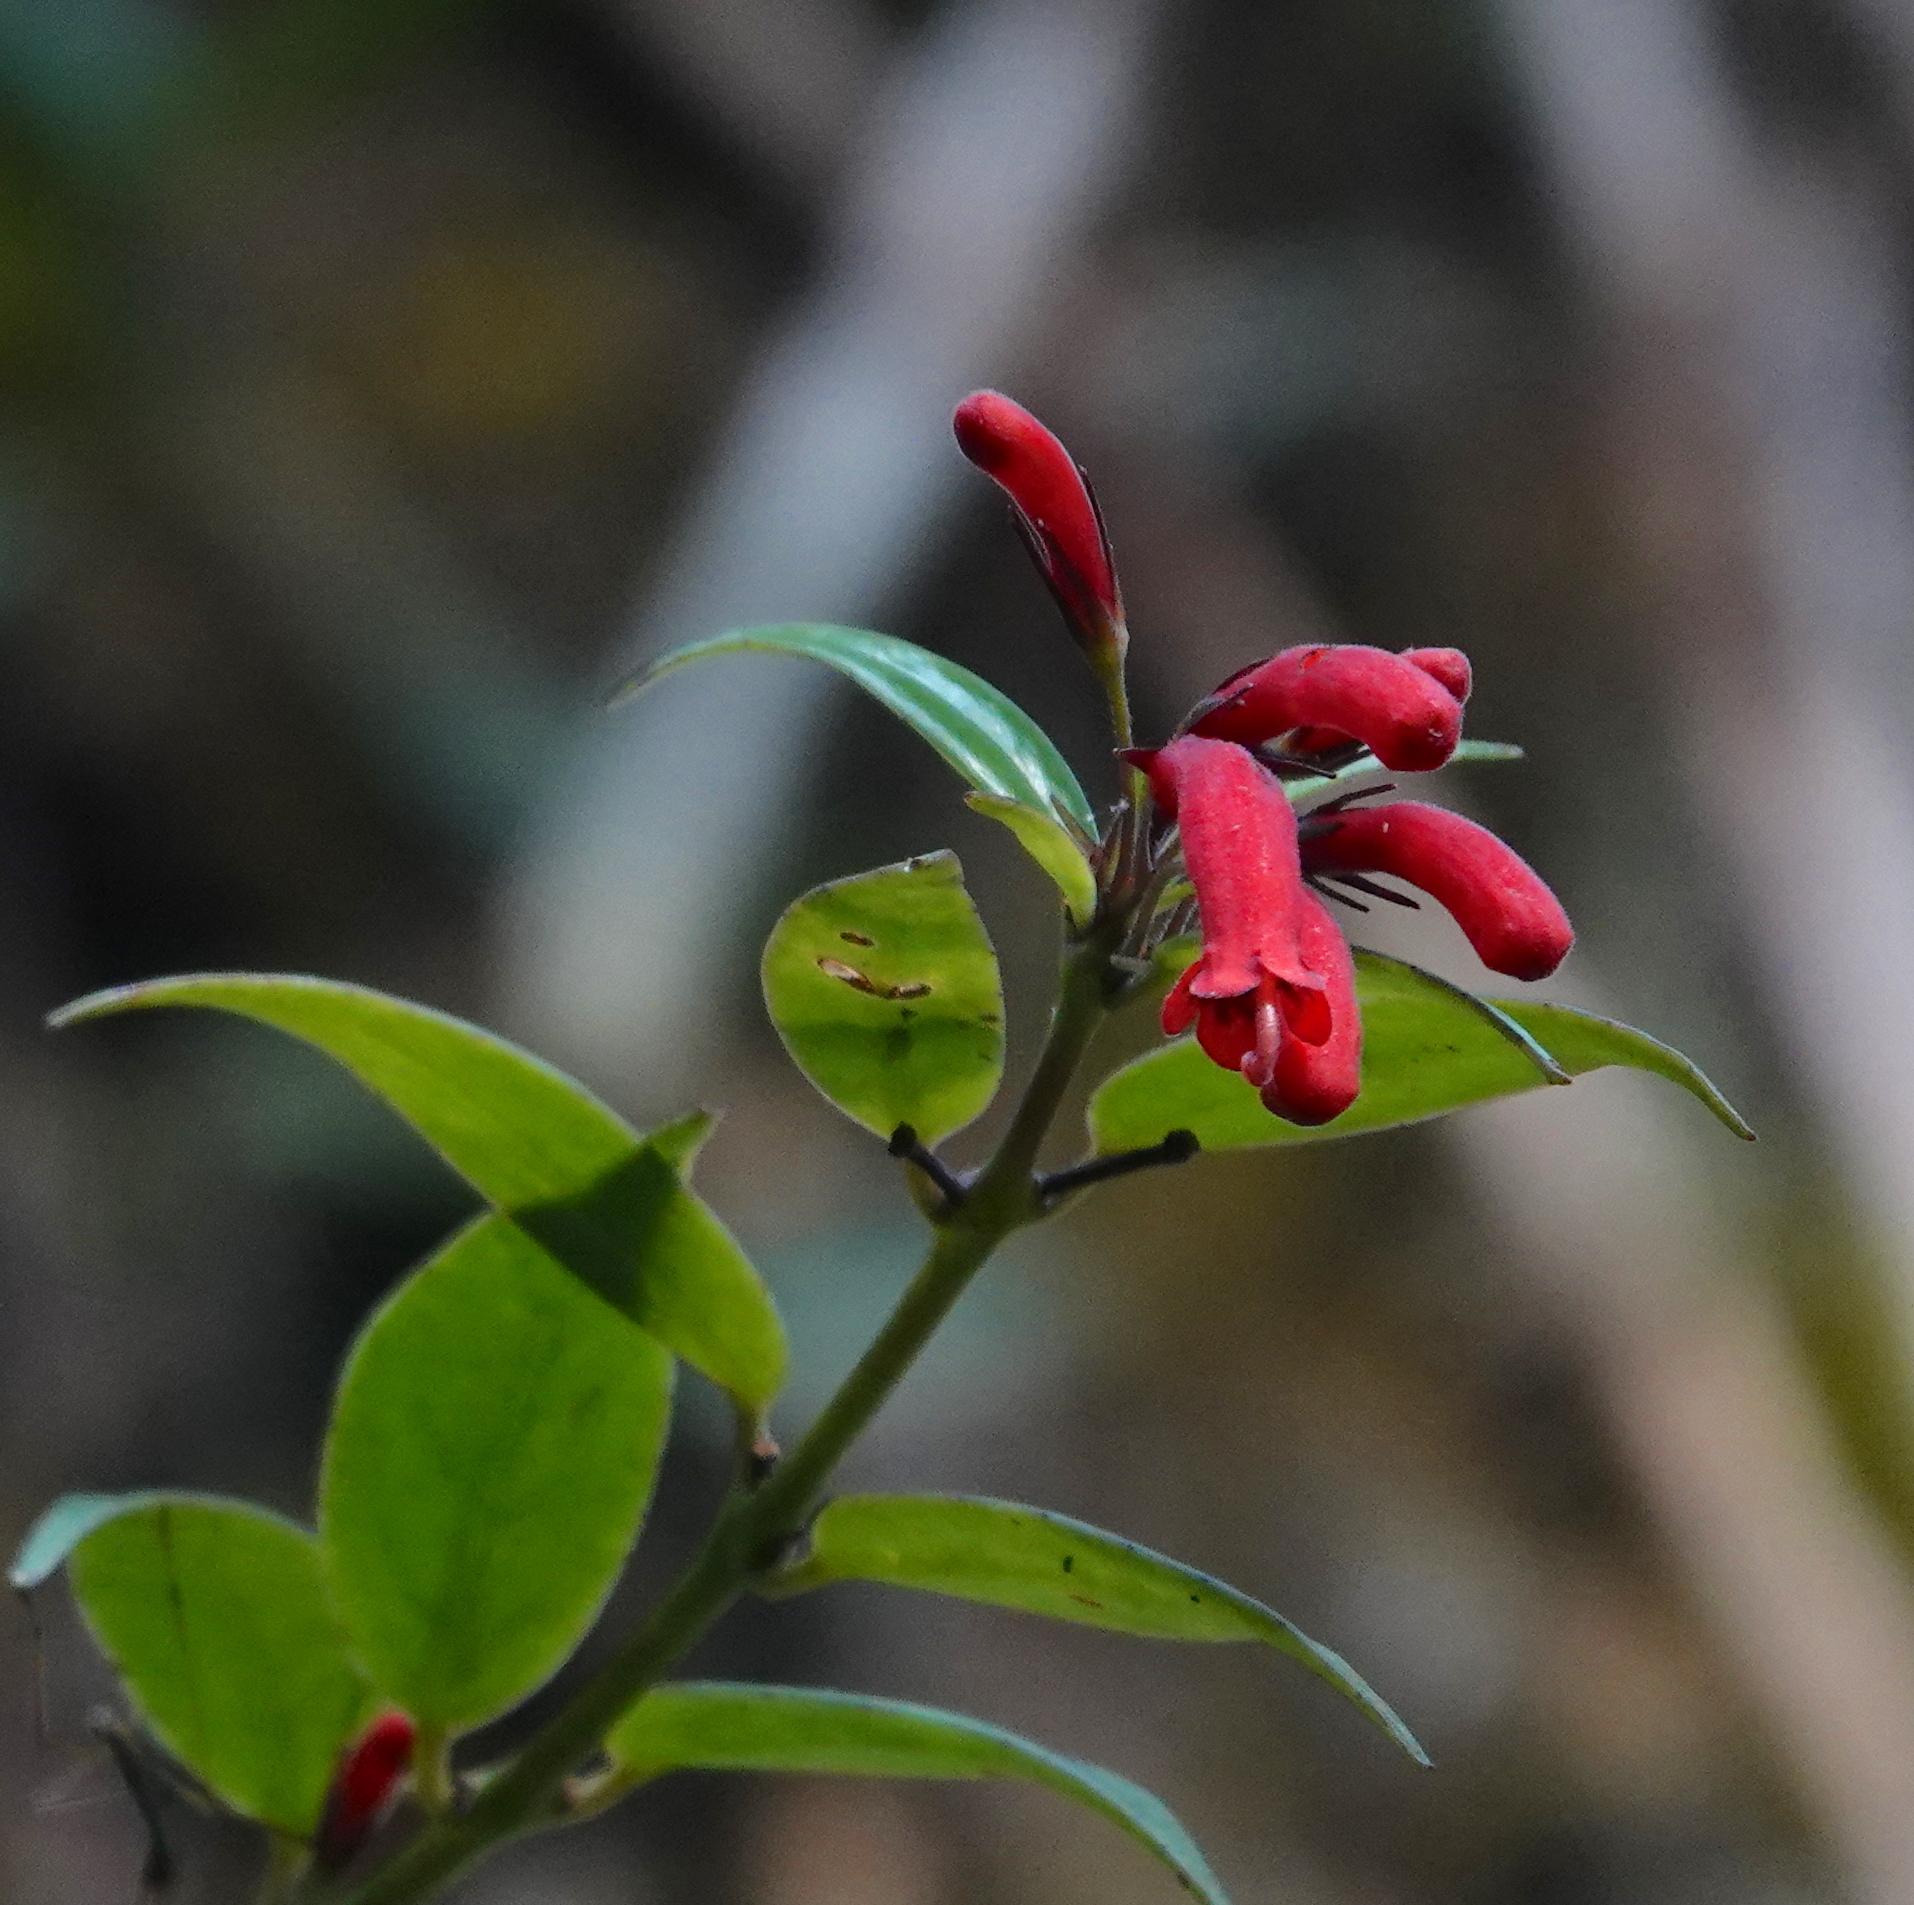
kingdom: Plantae
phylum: Tracheophyta
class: Magnoliopsida
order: Lamiales
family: Gesneriaceae
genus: Aeschynanthus
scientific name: Aeschynanthus horsfieldii
